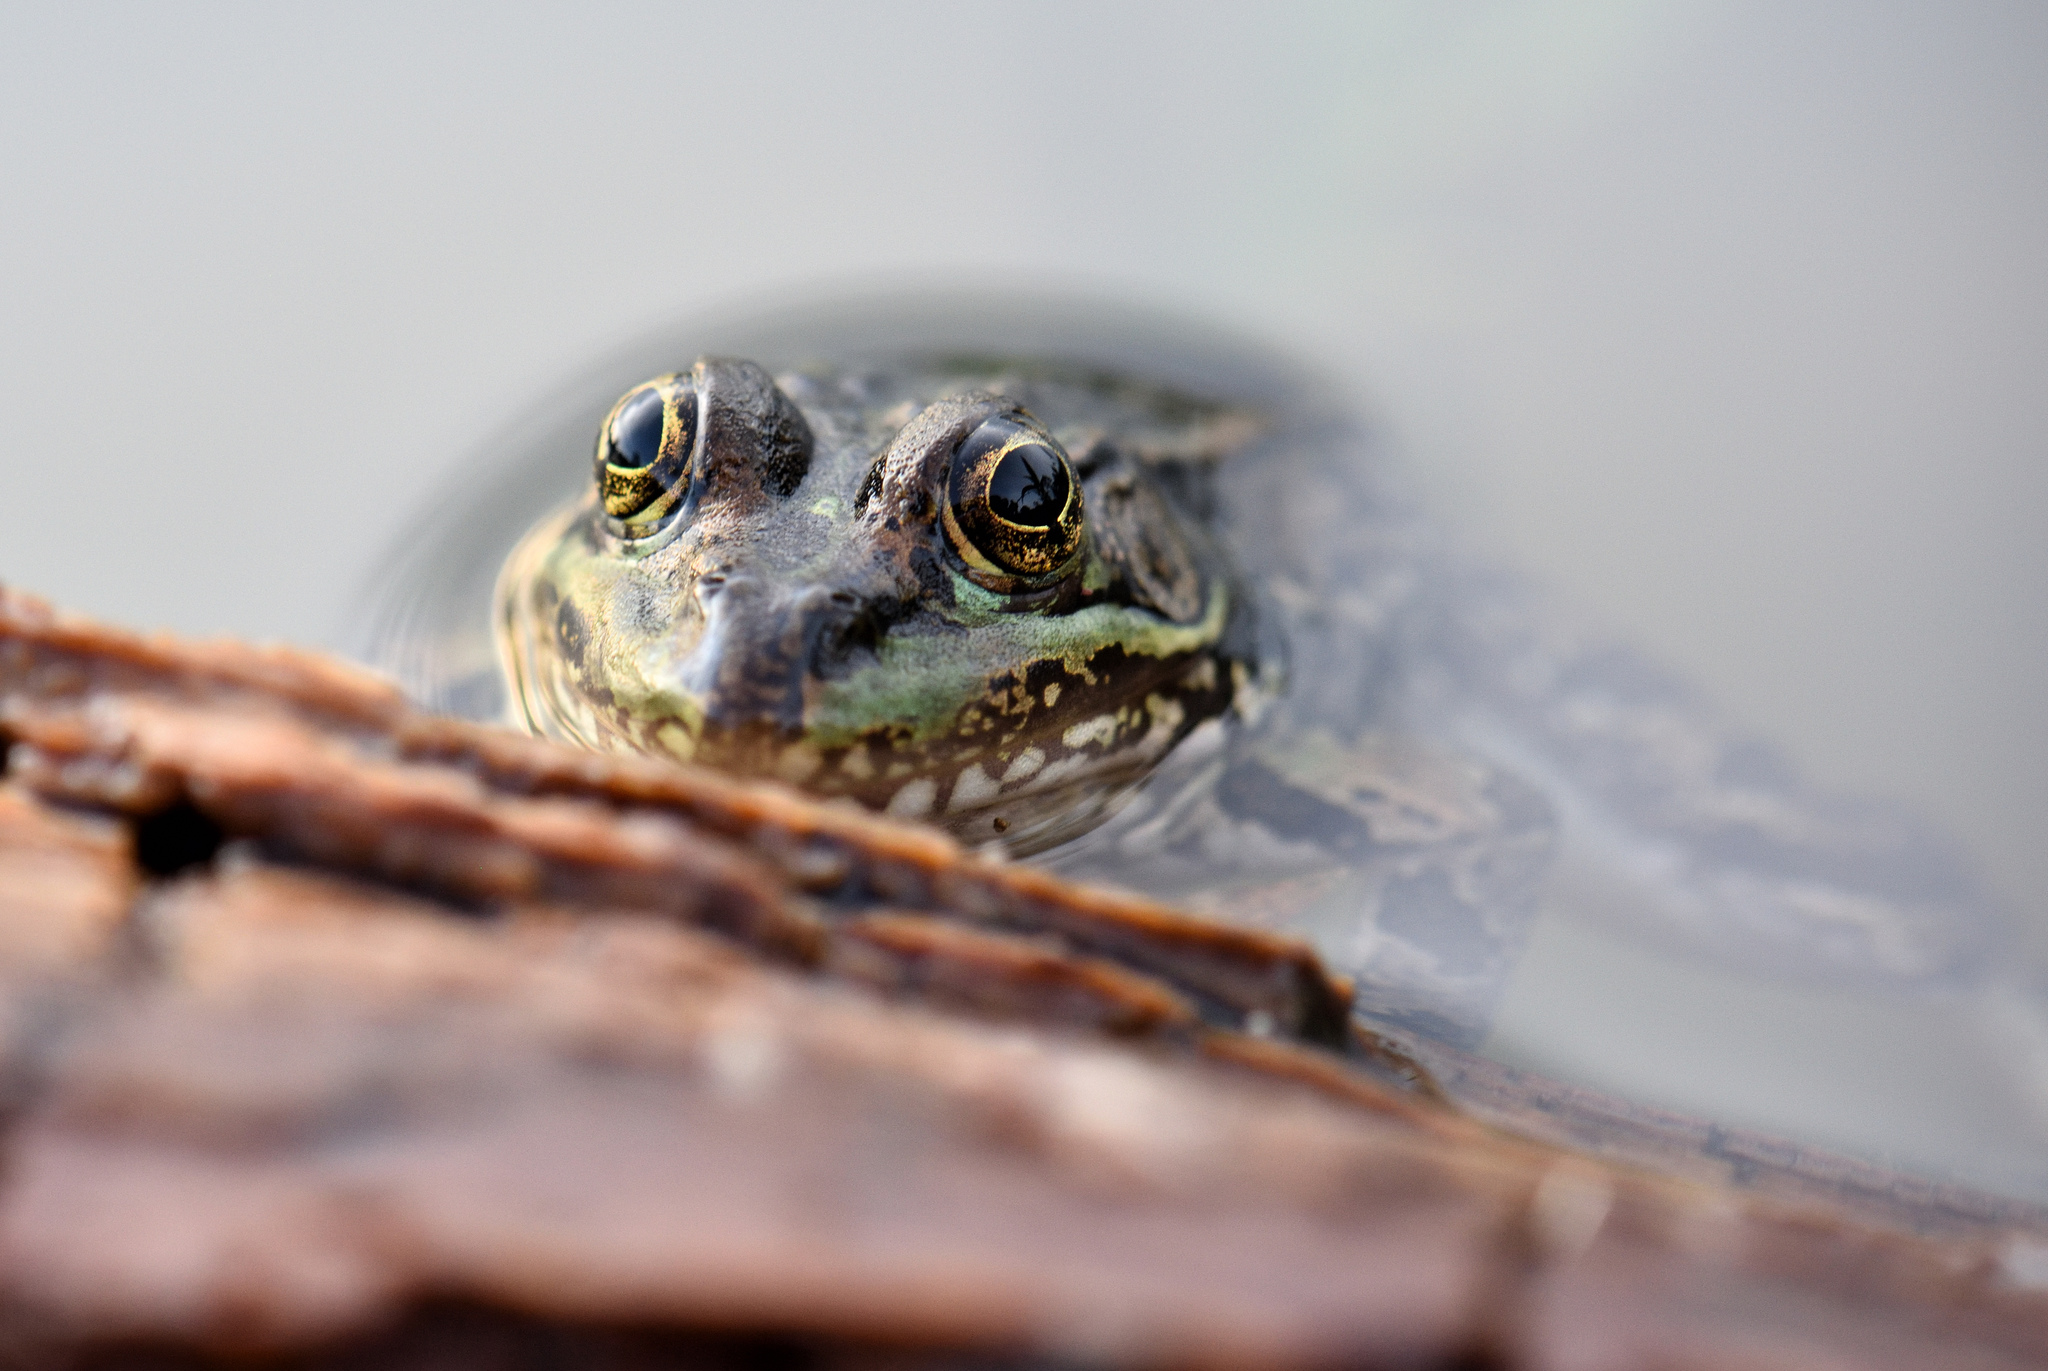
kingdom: Animalia
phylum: Chordata
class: Amphibia
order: Anura
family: Ranidae
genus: Lithobates
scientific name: Lithobates chiricahuensis
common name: Chiricahua leopard frog
